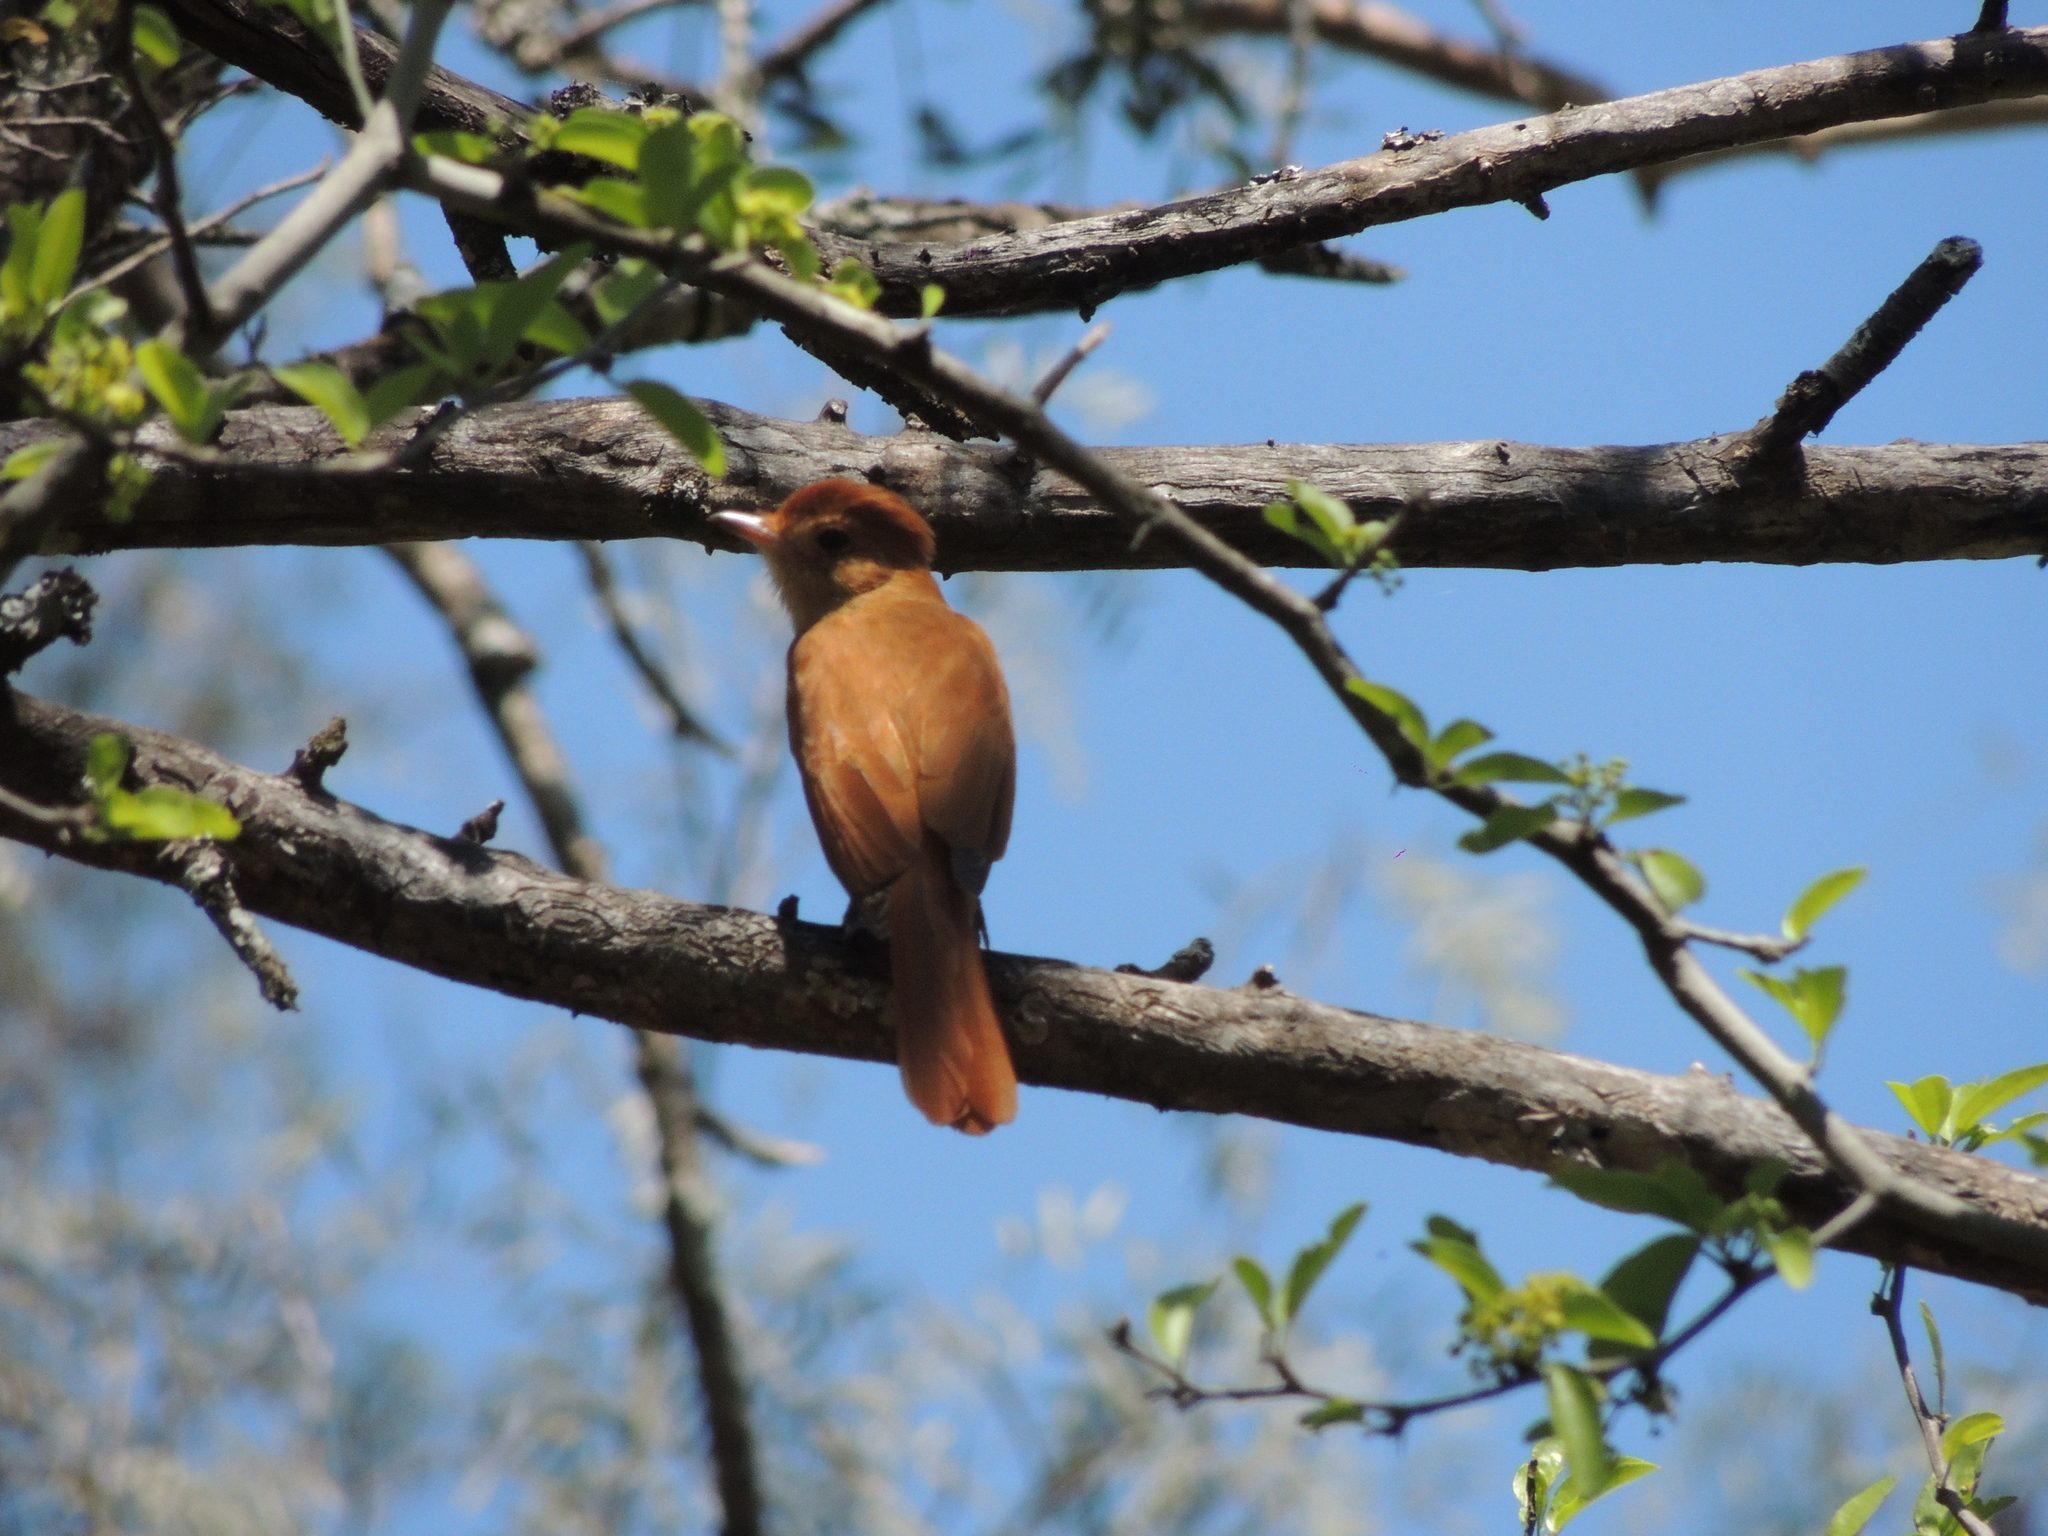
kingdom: Animalia
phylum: Chordata
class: Aves
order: Passeriformes
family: Tyrannidae
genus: Casiornis
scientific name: Casiornis rufus
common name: Rufous casiornis
